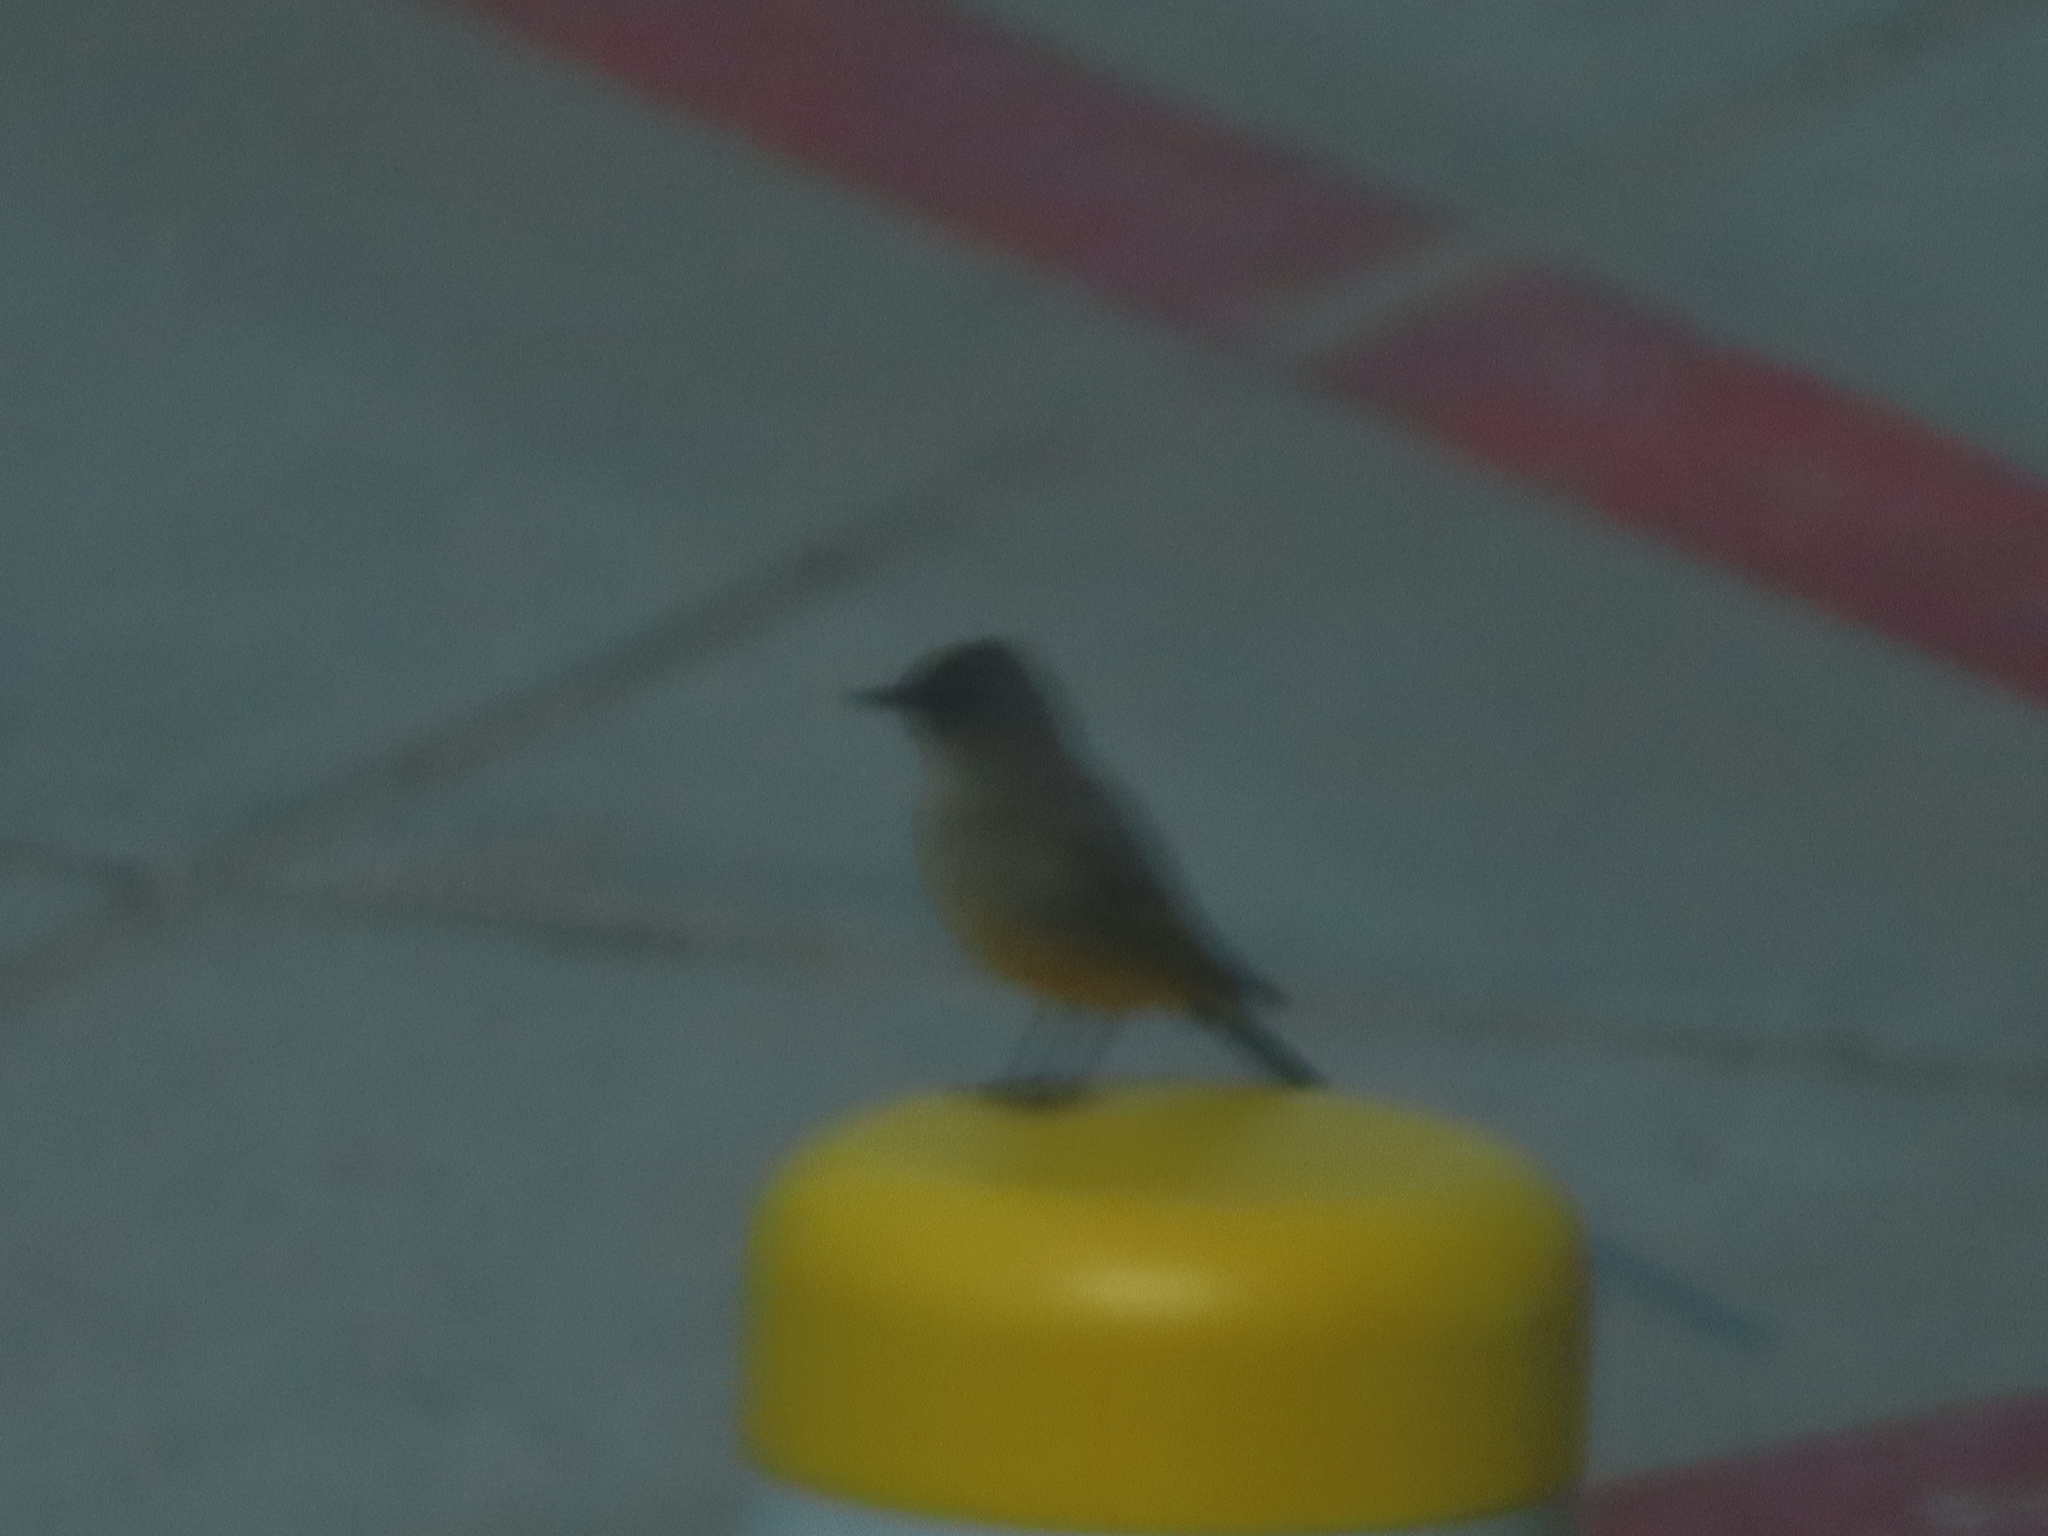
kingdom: Animalia
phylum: Chordata
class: Aves
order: Passeriformes
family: Tyrannidae
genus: Sayornis
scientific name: Sayornis saya
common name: Say's phoebe
